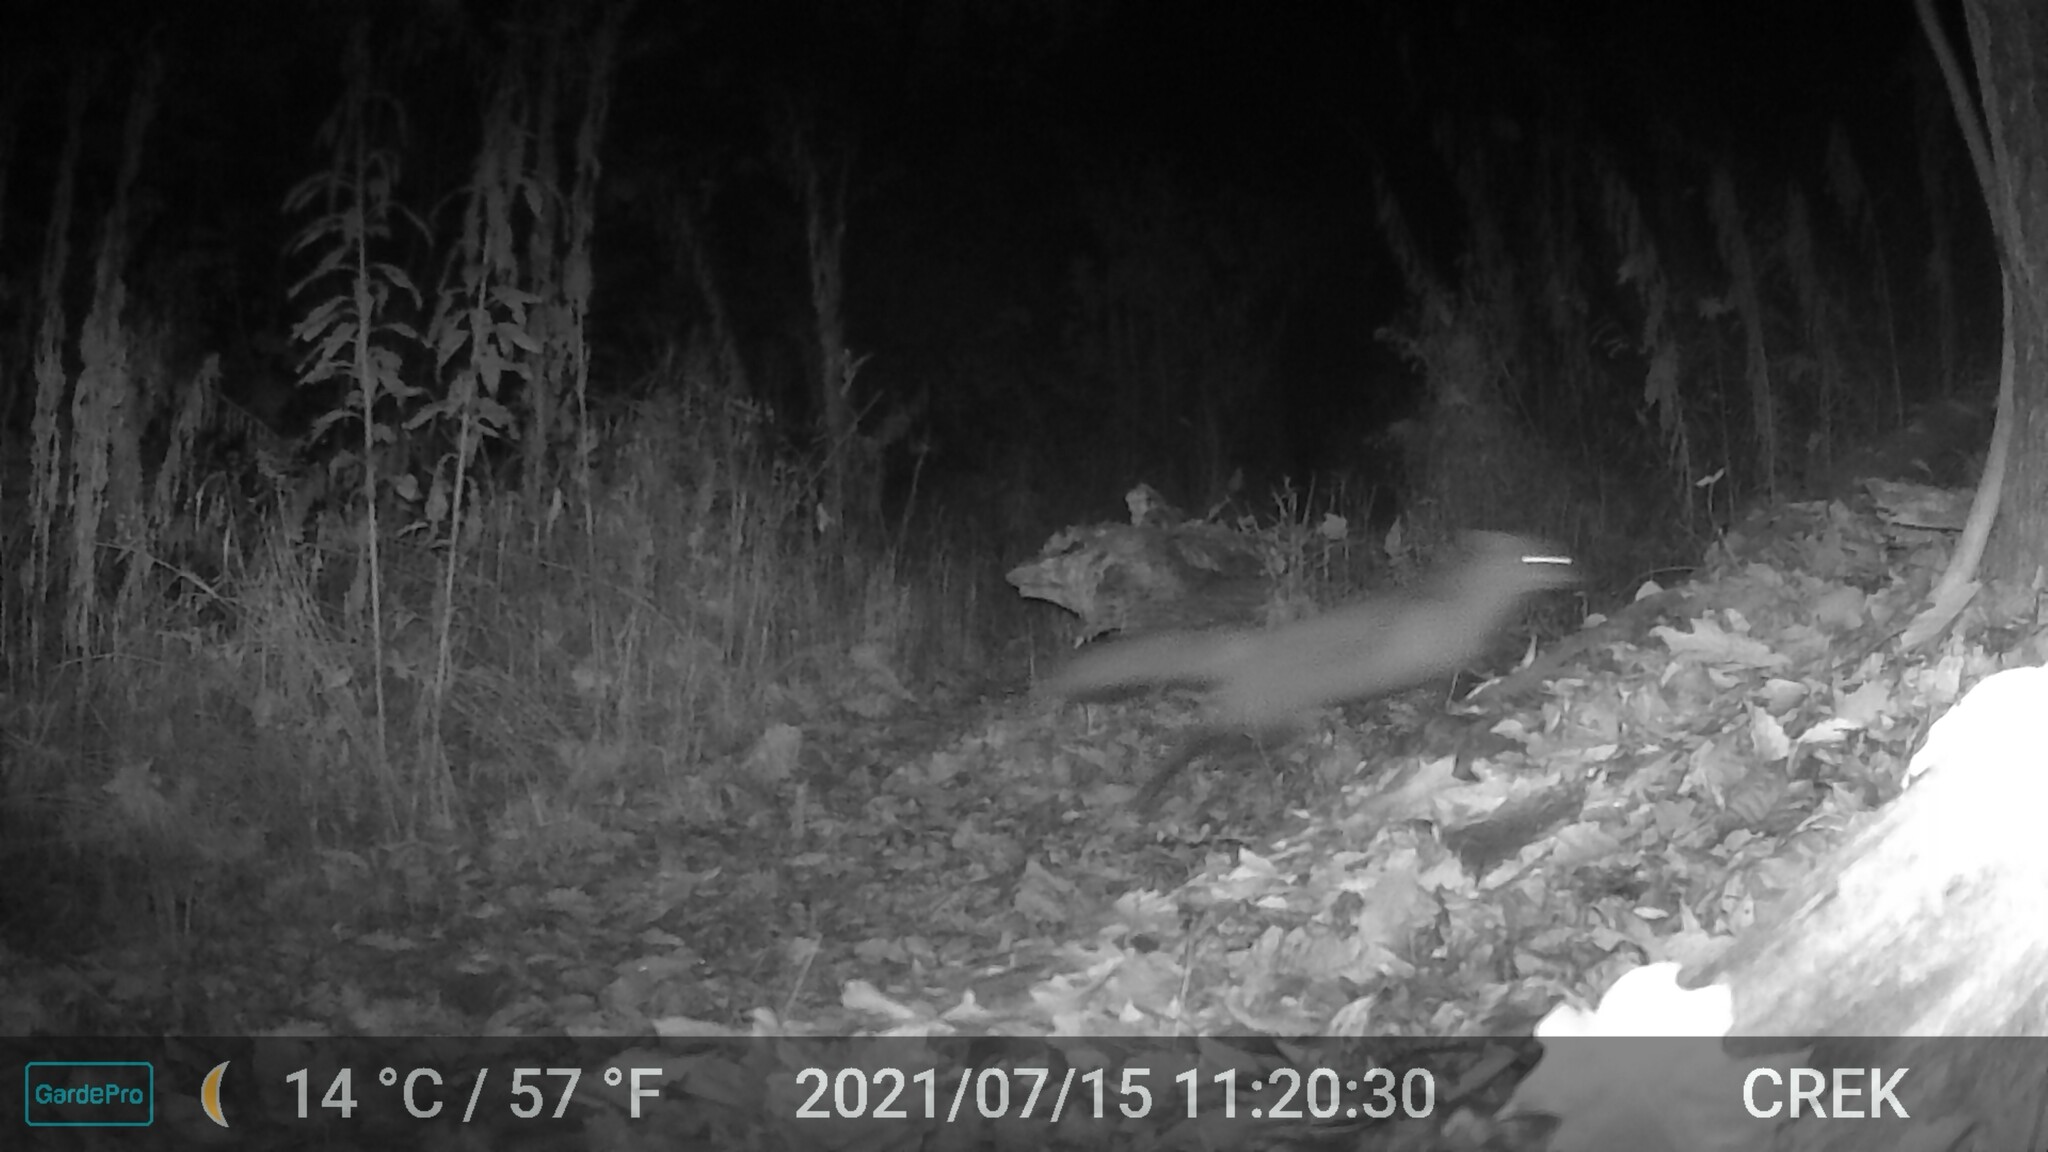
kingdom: Animalia
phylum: Chordata
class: Mammalia
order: Carnivora
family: Canidae
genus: Vulpes
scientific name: Vulpes vulpes
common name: Red fox
